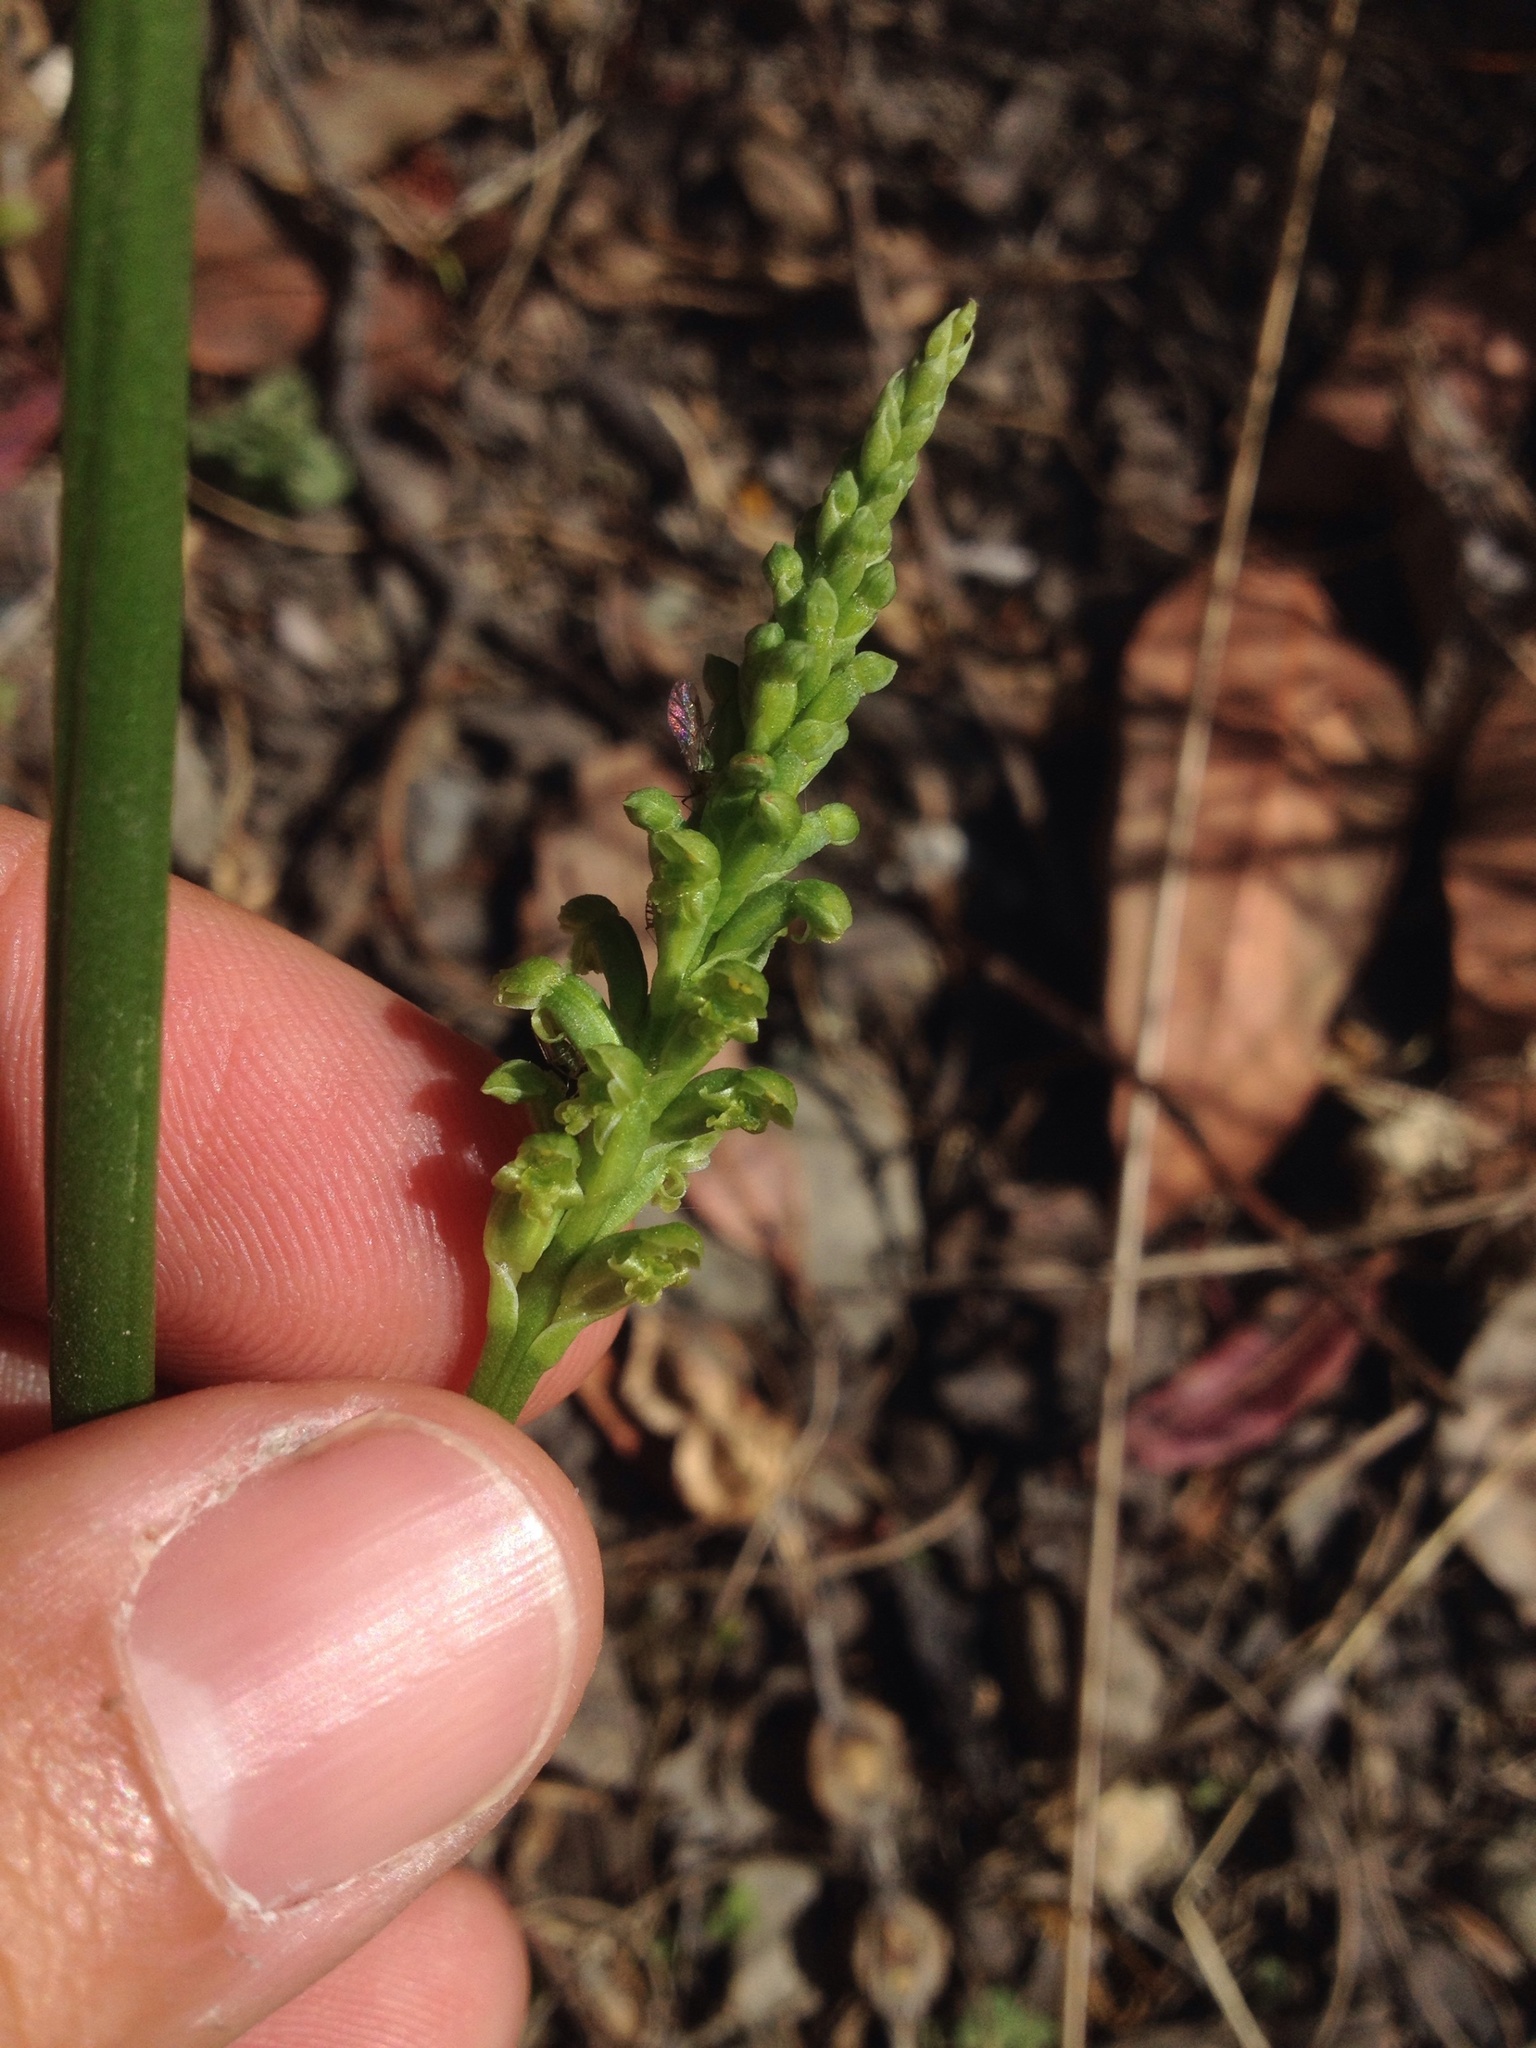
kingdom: Plantae
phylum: Tracheophyta
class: Liliopsida
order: Asparagales
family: Orchidaceae
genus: Microtis
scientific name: Microtis unifolia
